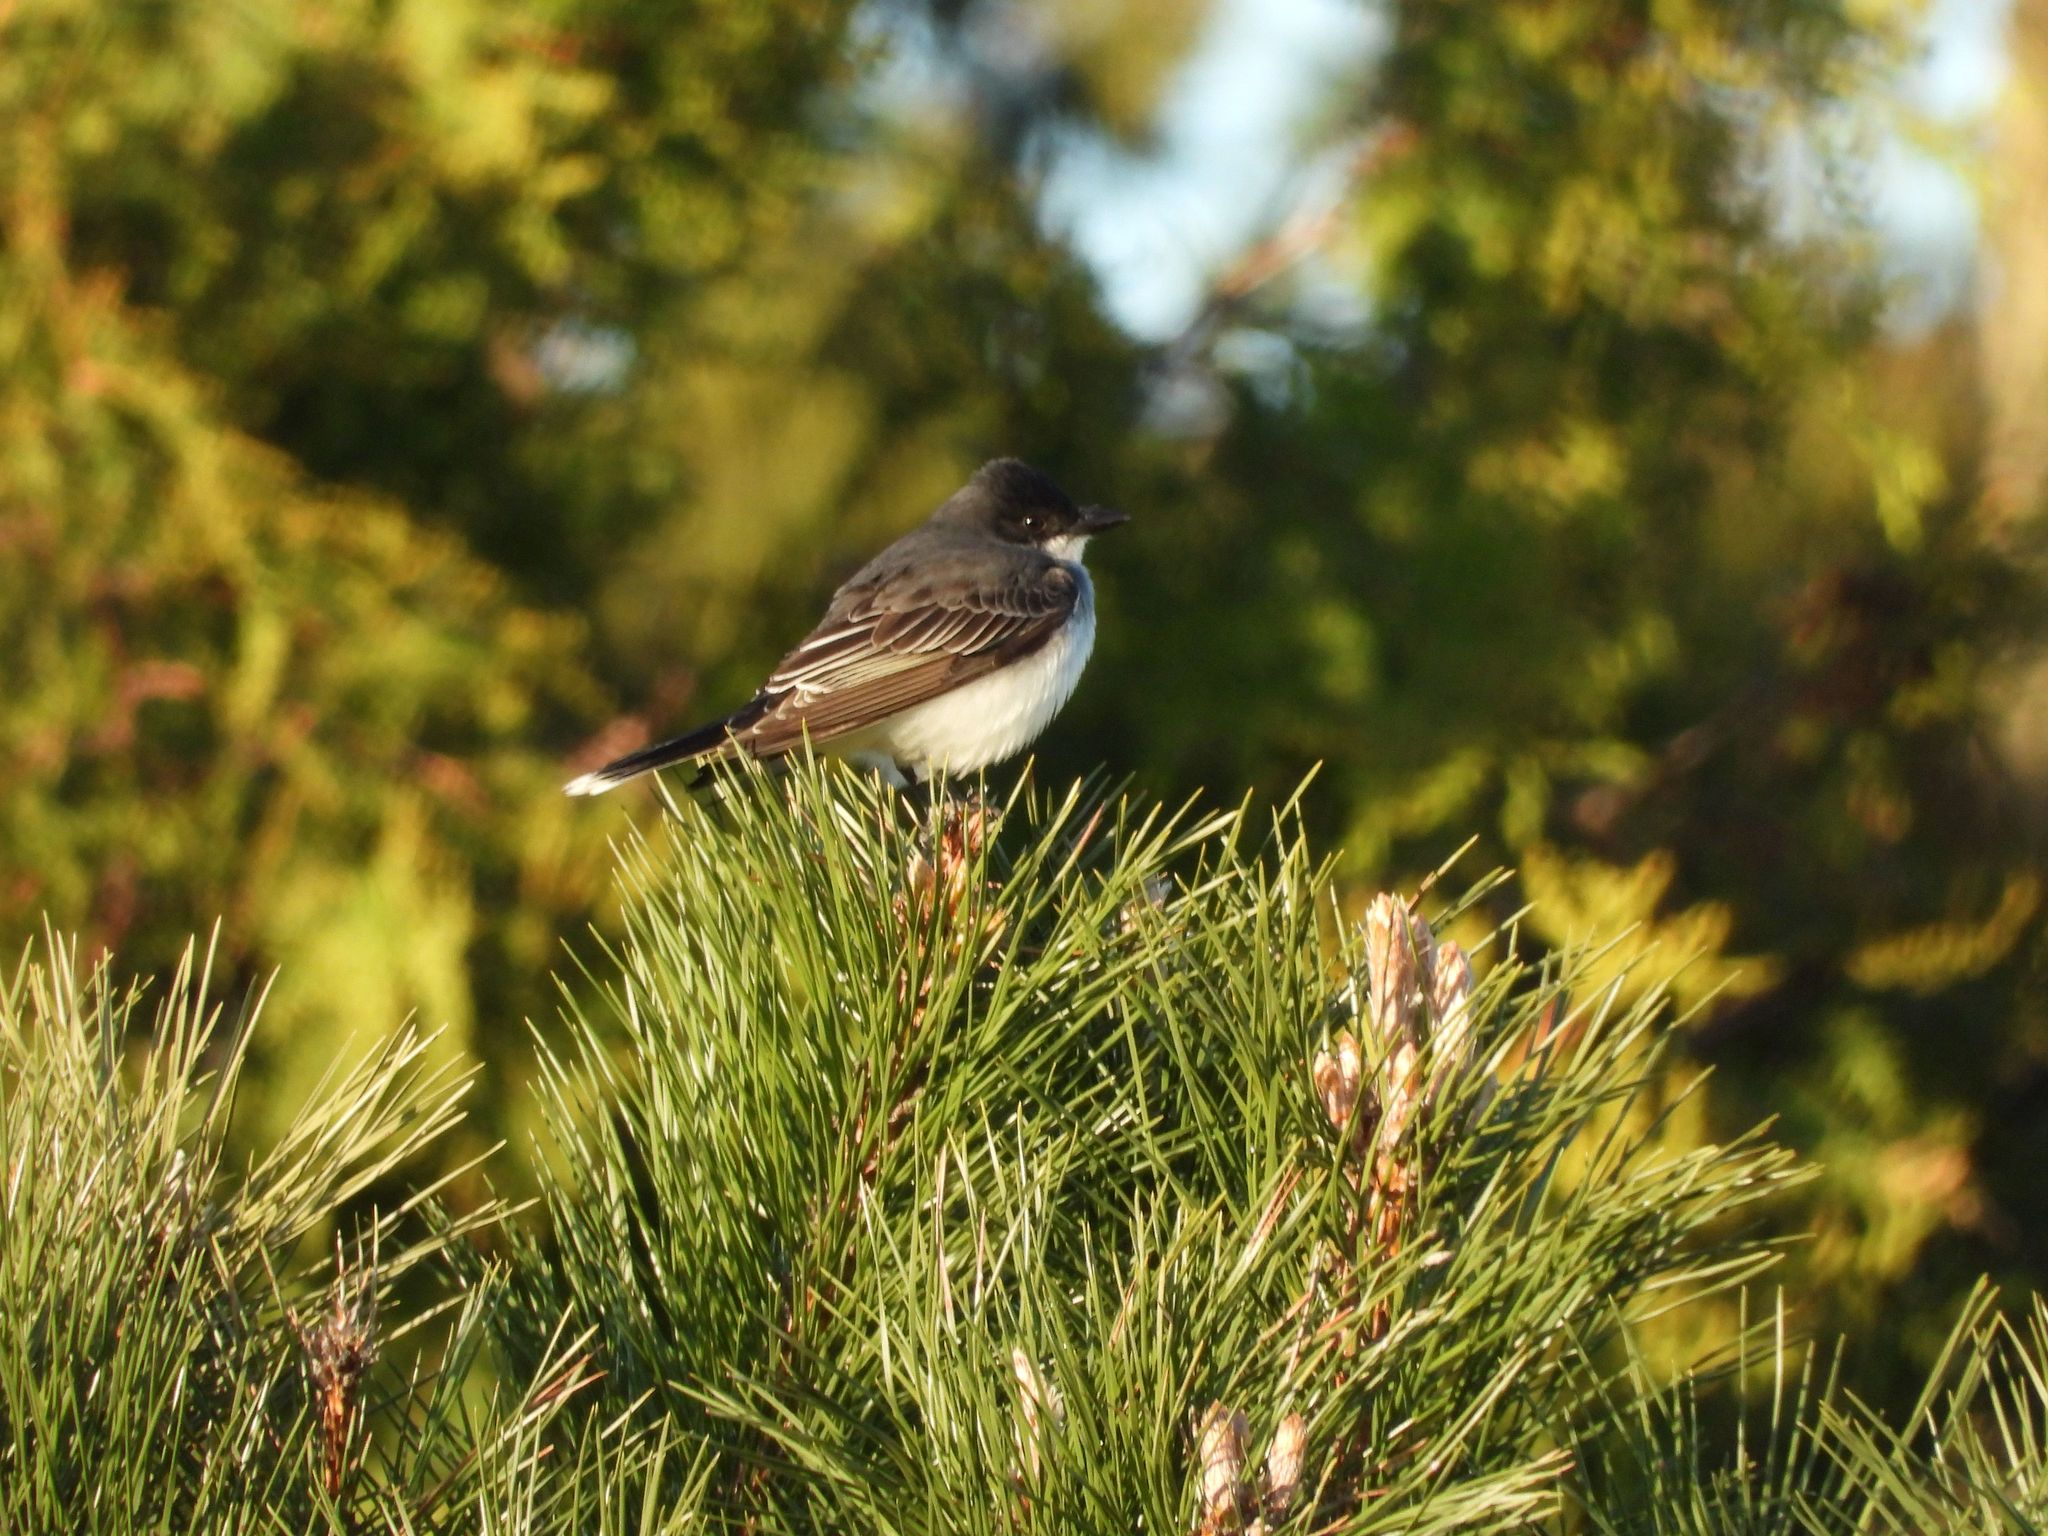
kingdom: Animalia
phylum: Chordata
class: Aves
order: Passeriformes
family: Tyrannidae
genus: Tyrannus
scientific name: Tyrannus tyrannus
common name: Eastern kingbird
